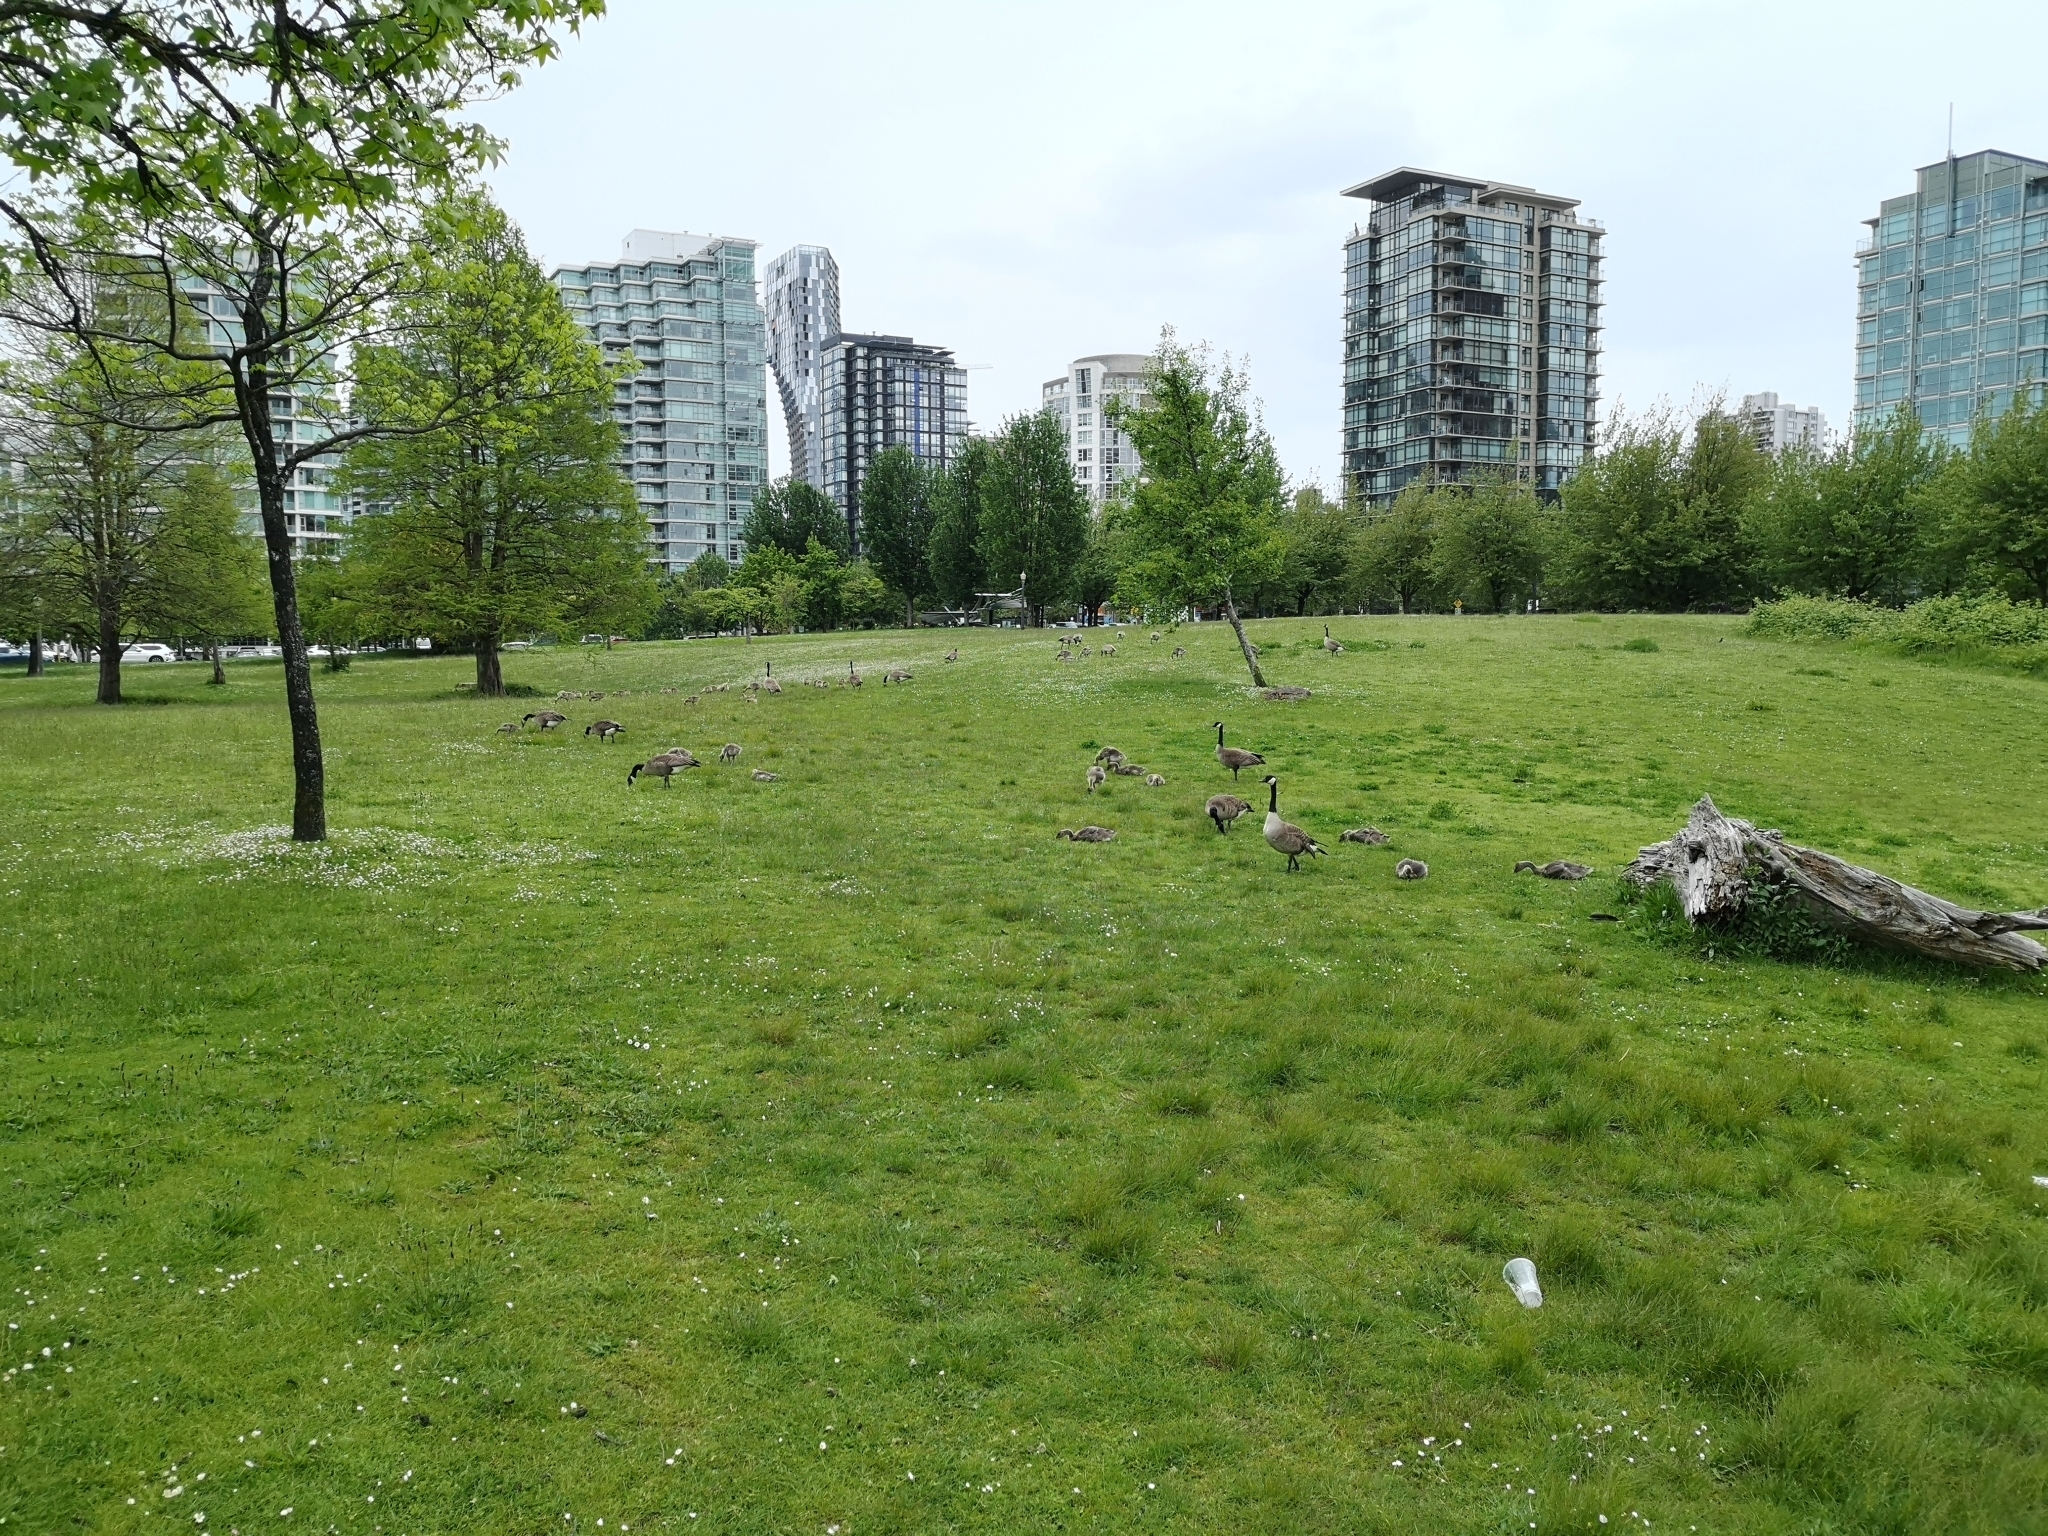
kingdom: Animalia
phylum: Chordata
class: Aves
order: Anseriformes
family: Anatidae
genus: Branta
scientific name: Branta canadensis
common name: Canada goose
